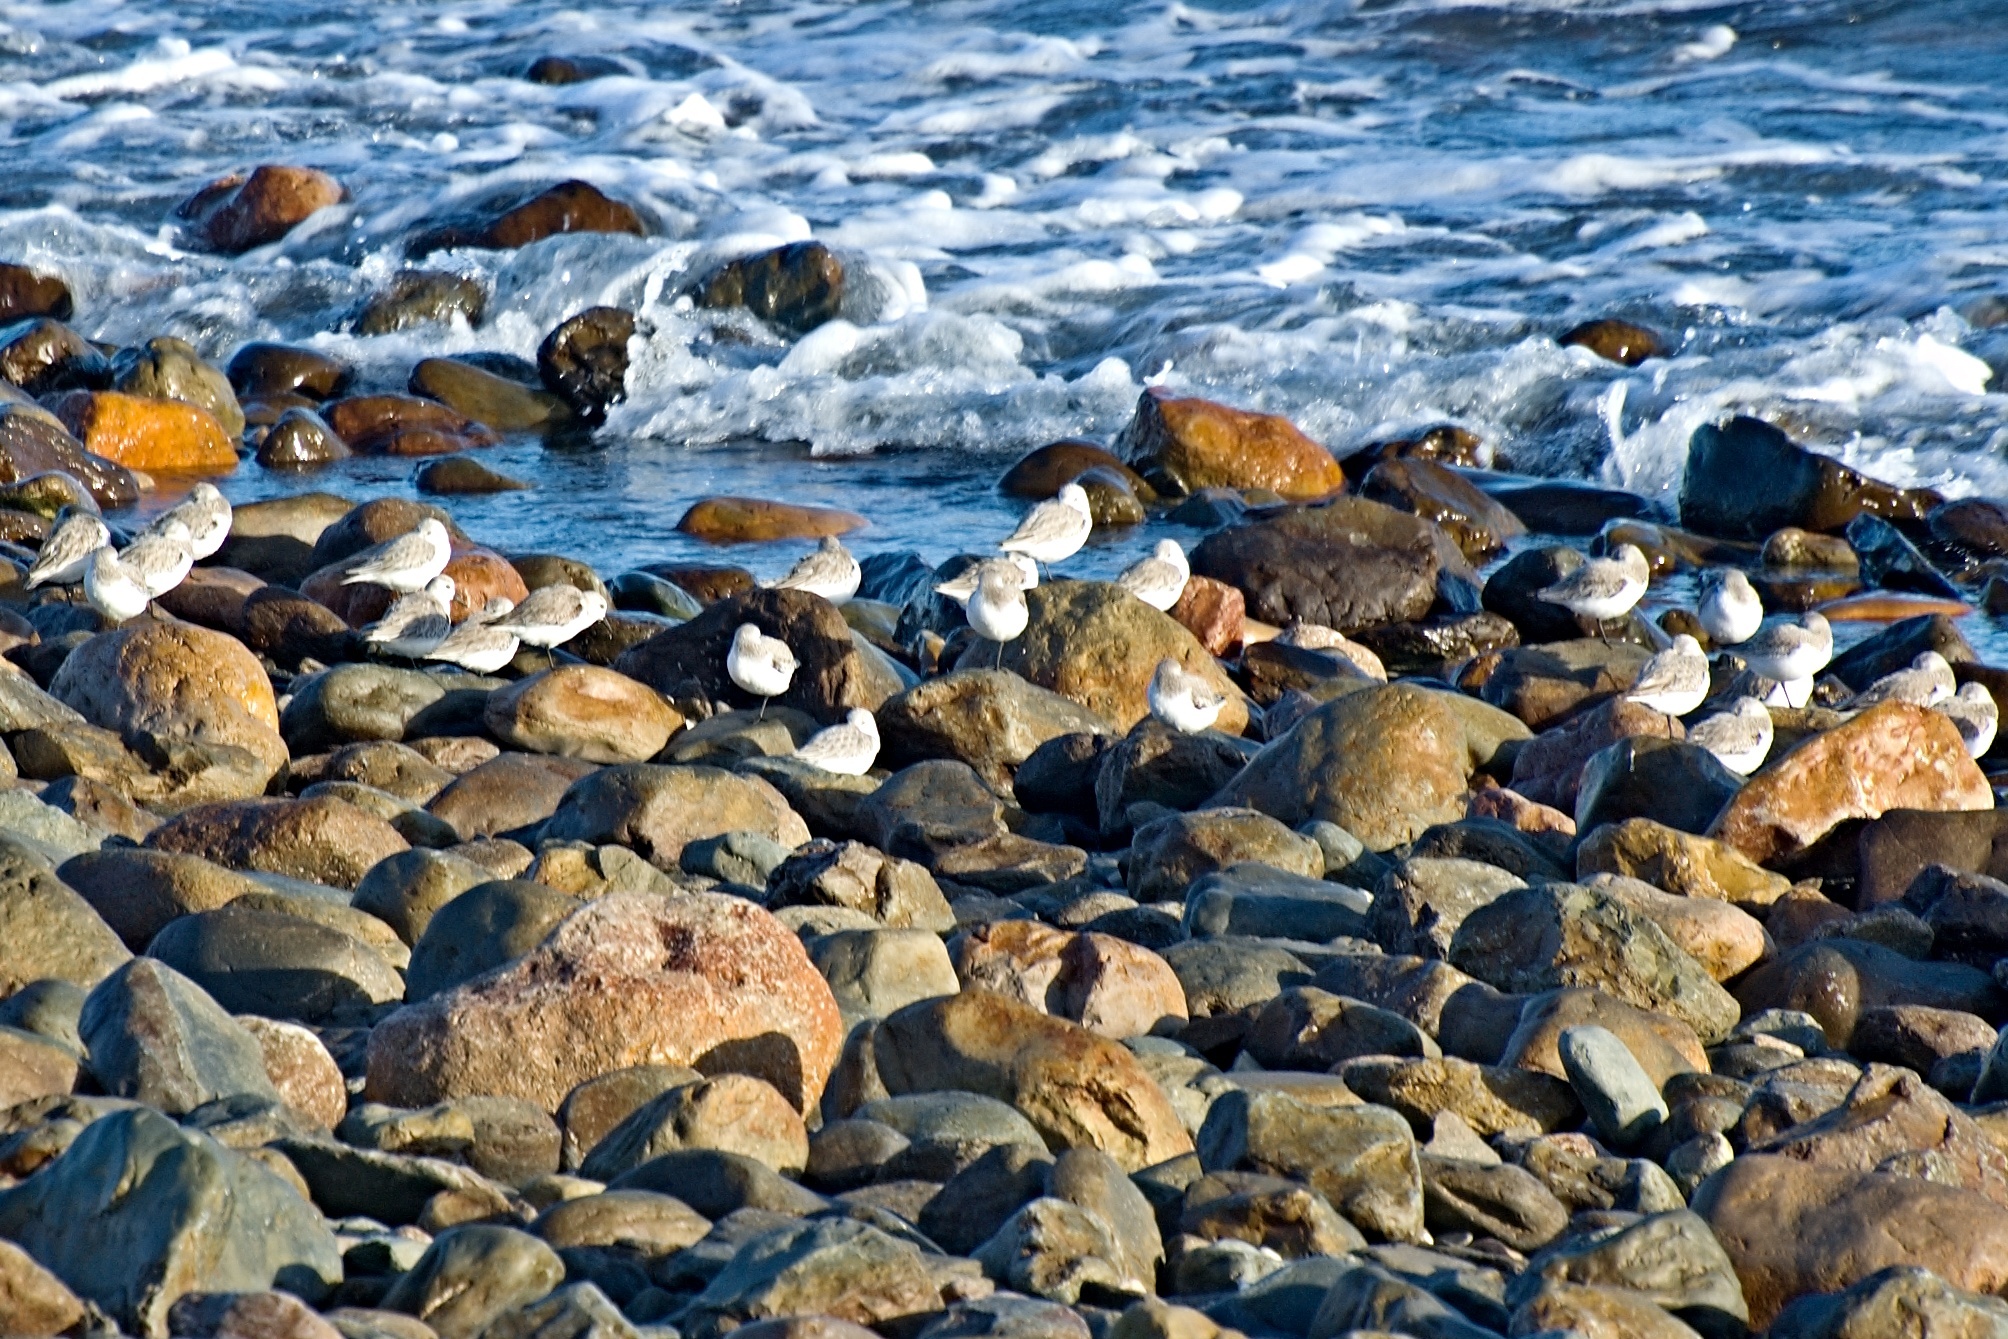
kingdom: Animalia
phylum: Chordata
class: Aves
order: Charadriiformes
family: Scolopacidae
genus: Calidris
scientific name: Calidris alba
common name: Sanderling
